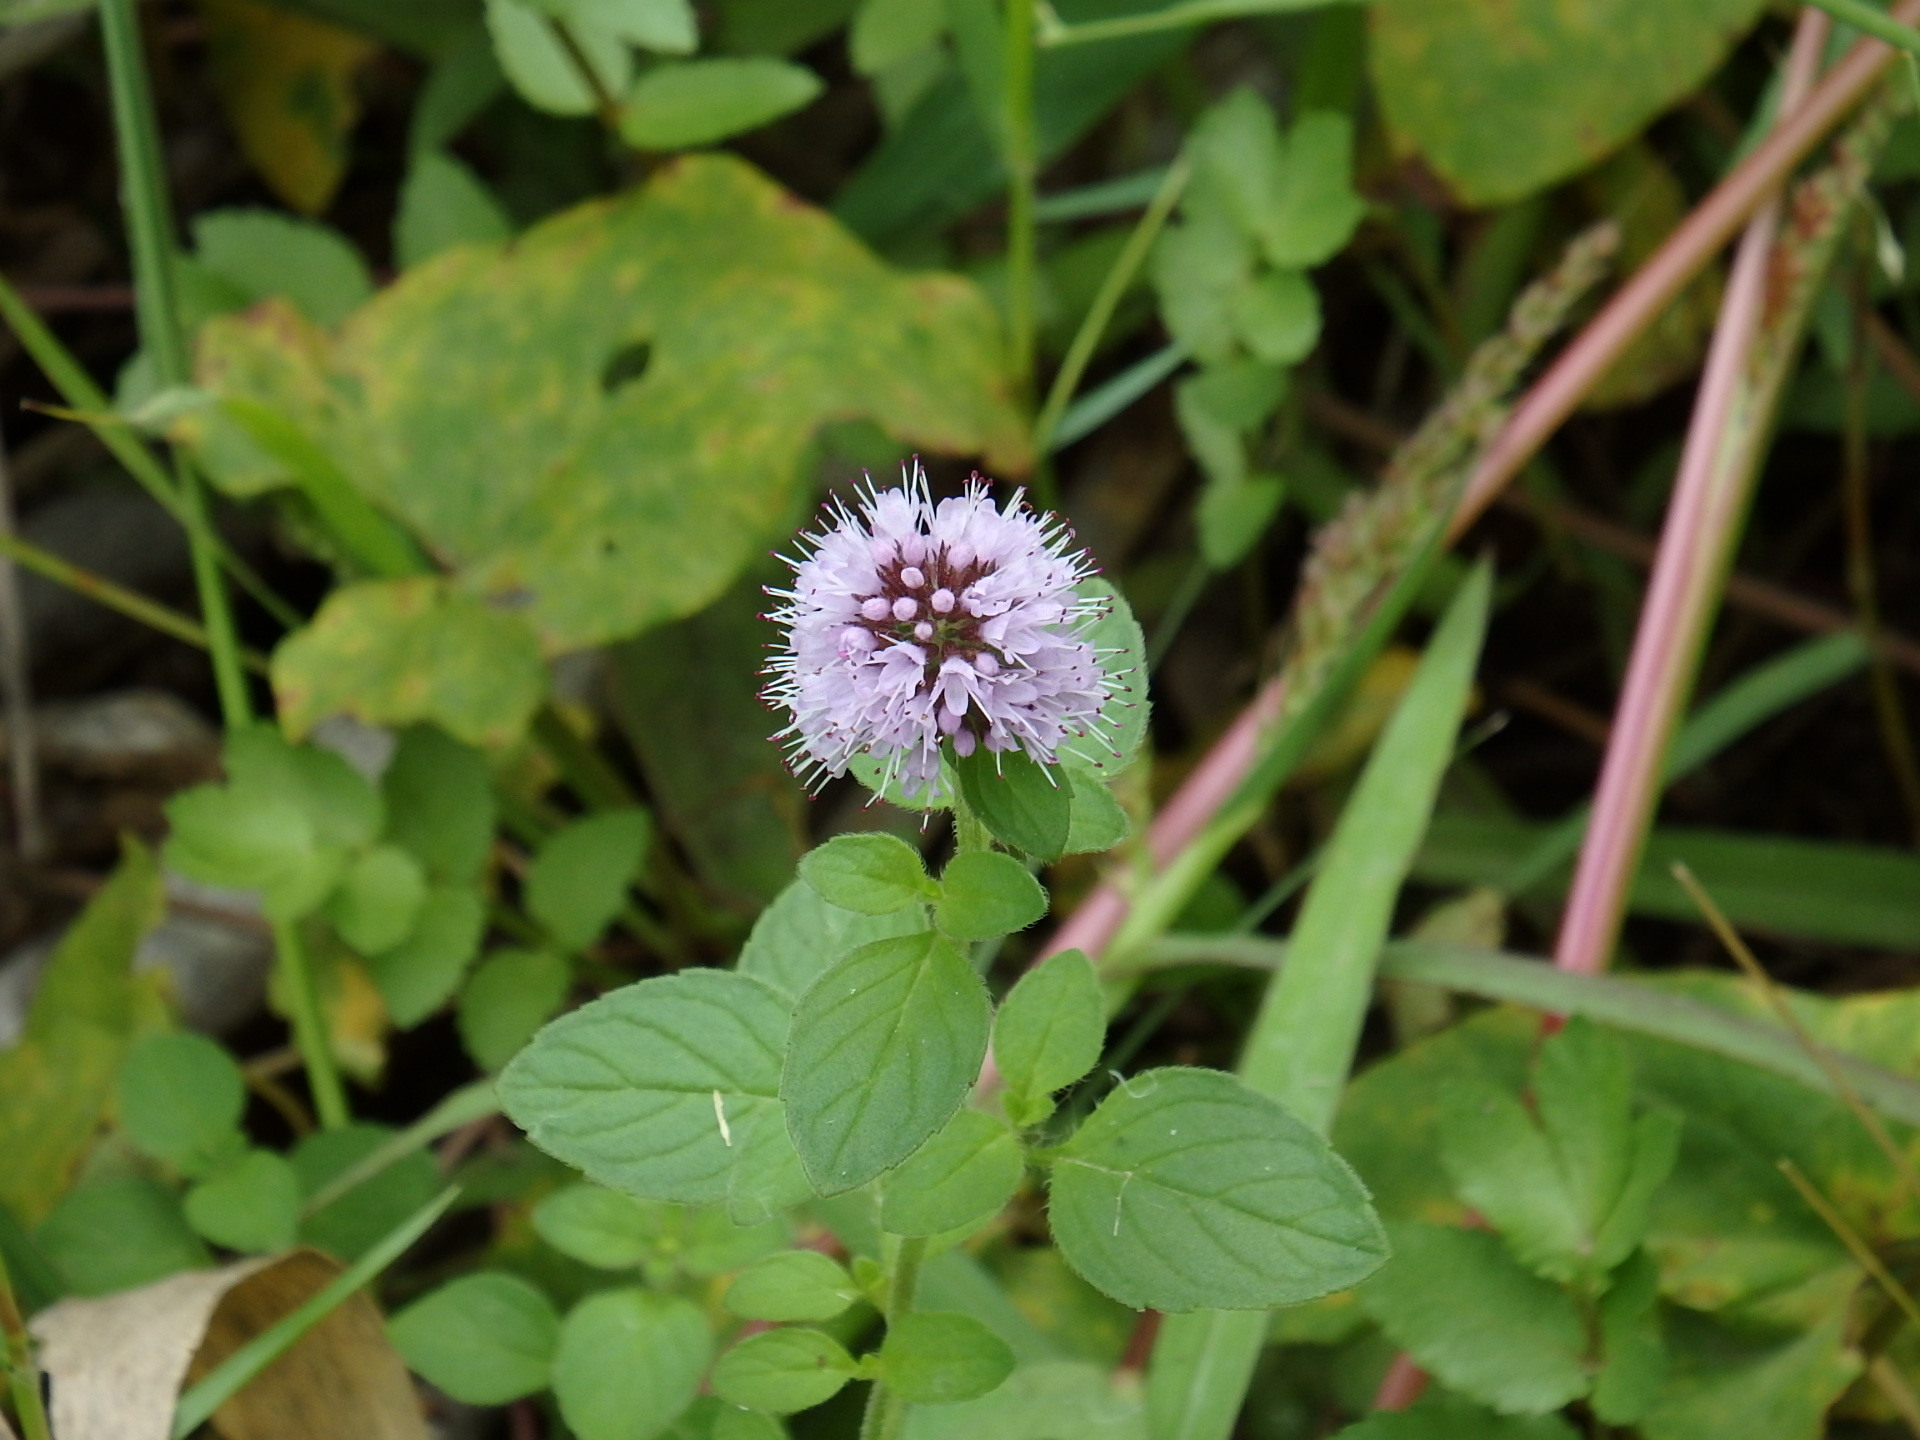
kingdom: Plantae
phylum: Tracheophyta
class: Magnoliopsida
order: Lamiales
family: Lamiaceae
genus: Mentha
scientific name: Mentha aquatica
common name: Water mint
